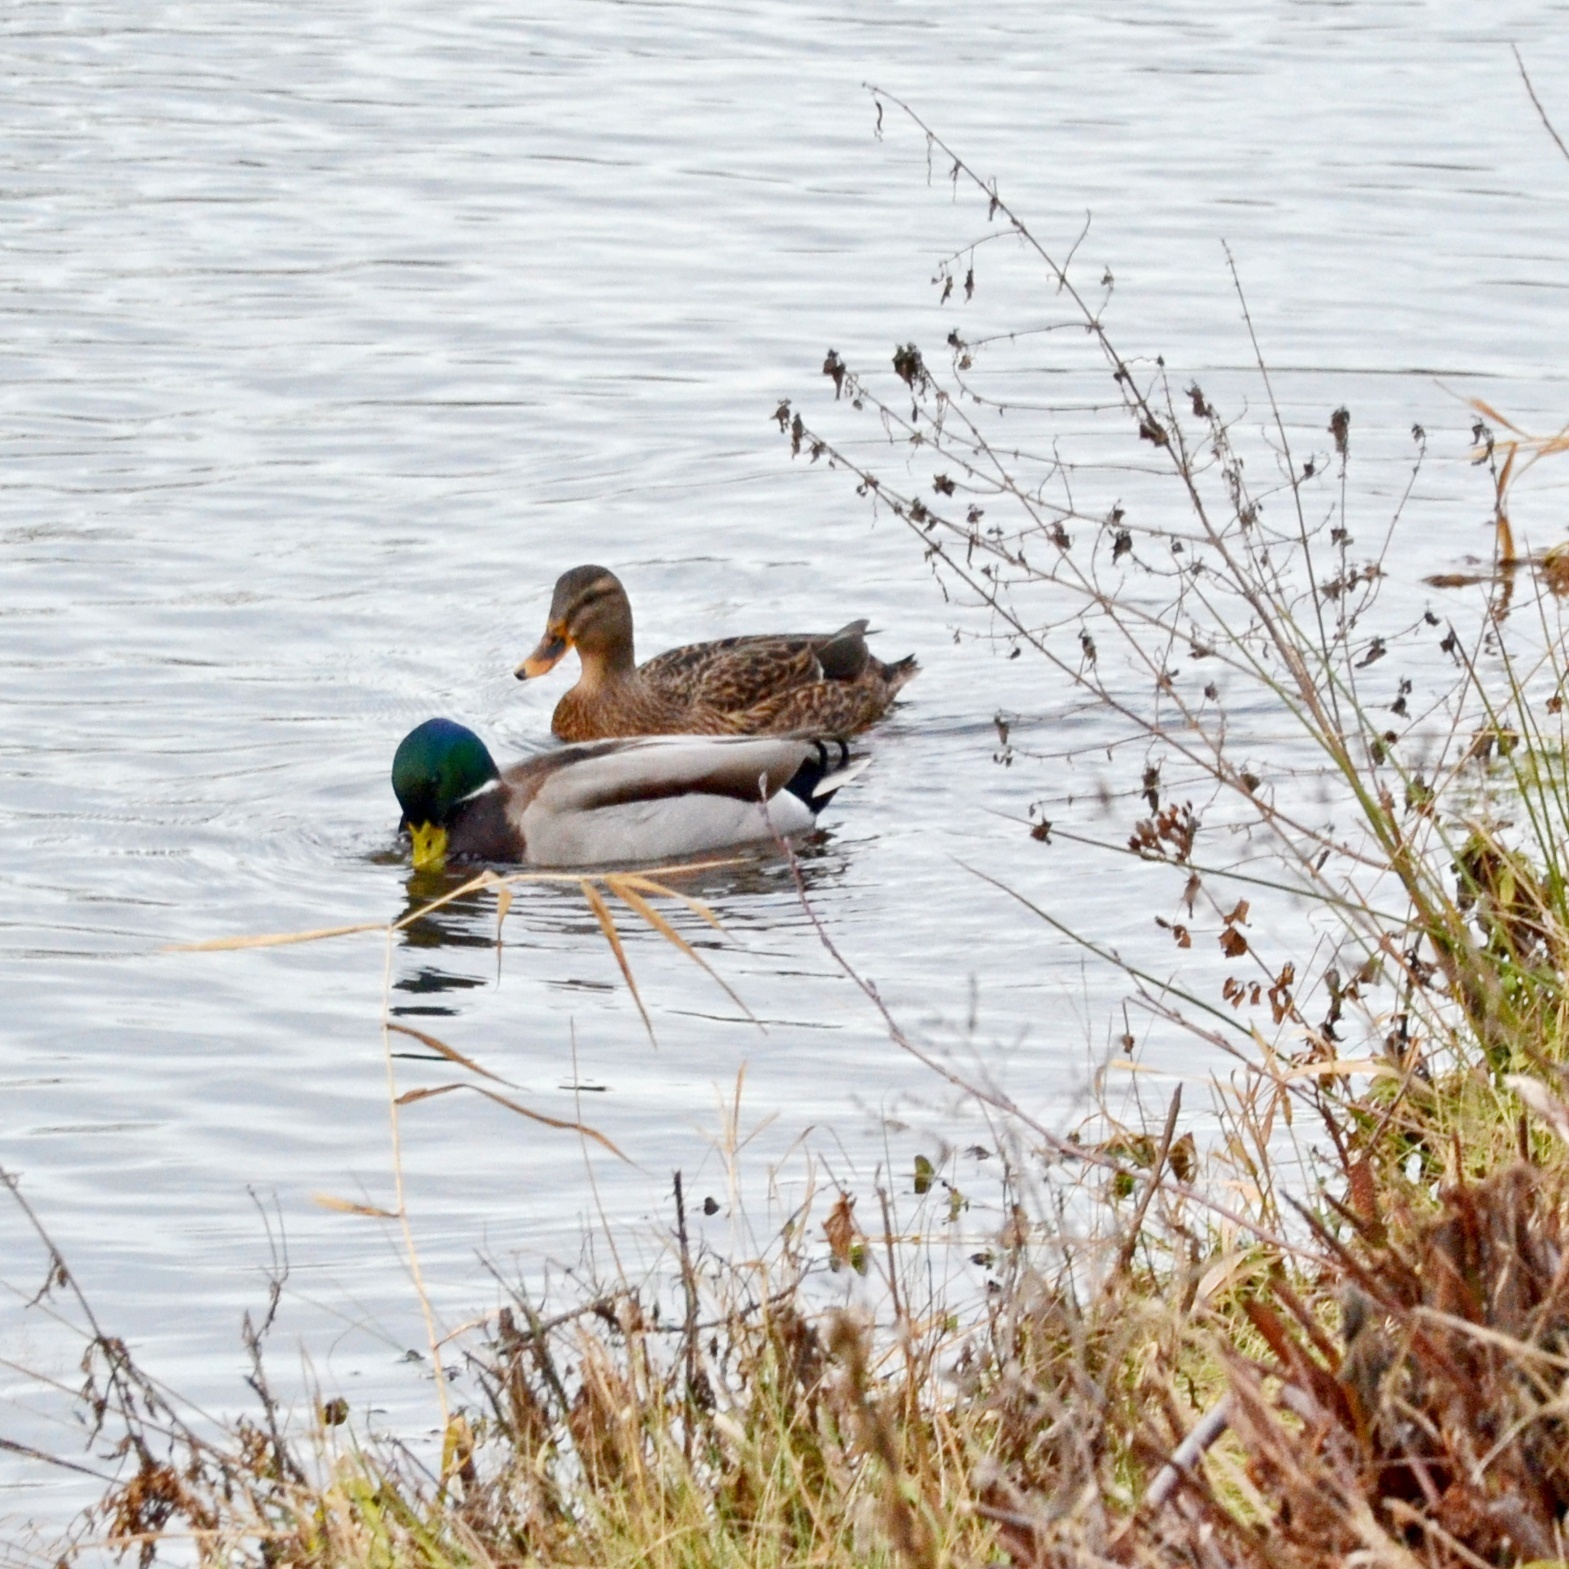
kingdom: Animalia
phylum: Chordata
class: Aves
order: Anseriformes
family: Anatidae
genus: Anas
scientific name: Anas platyrhynchos
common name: Mallard
